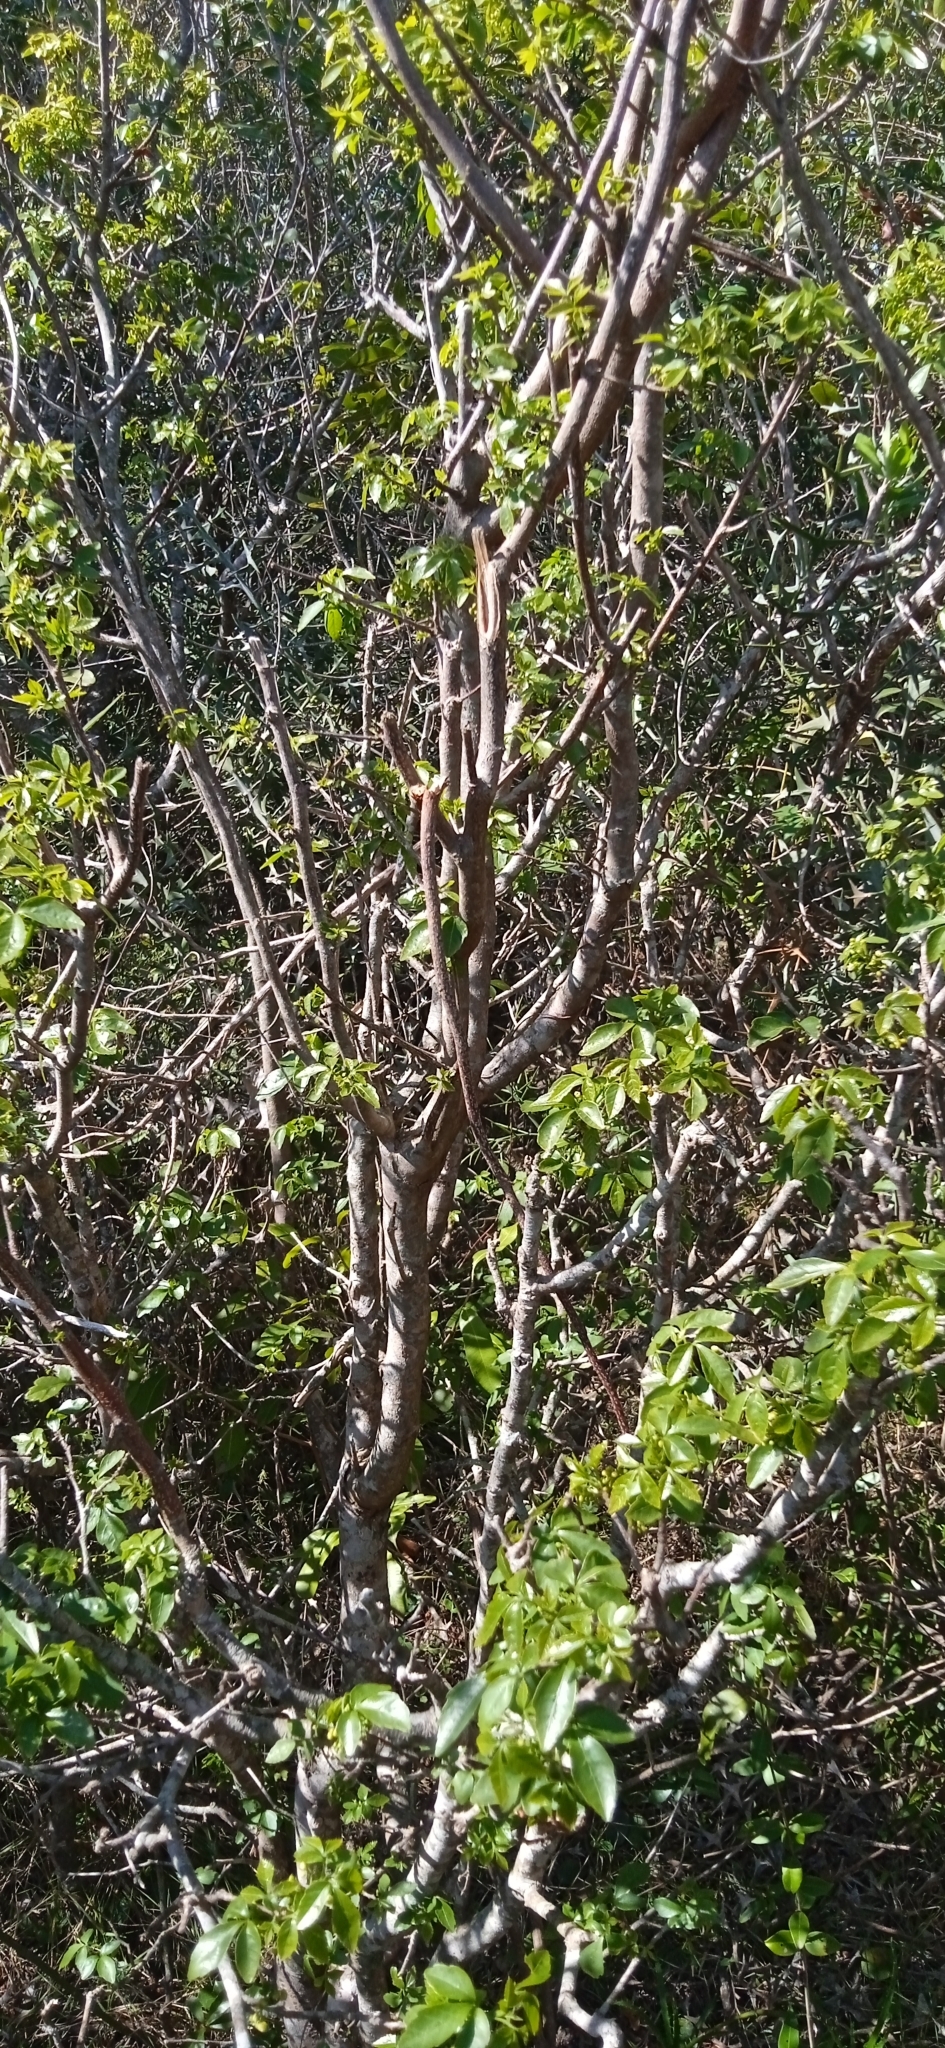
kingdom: Plantae
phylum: Tracheophyta
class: Magnoliopsida
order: Sapindales
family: Sapindaceae
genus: Allophylus
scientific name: Allophylus edulis
